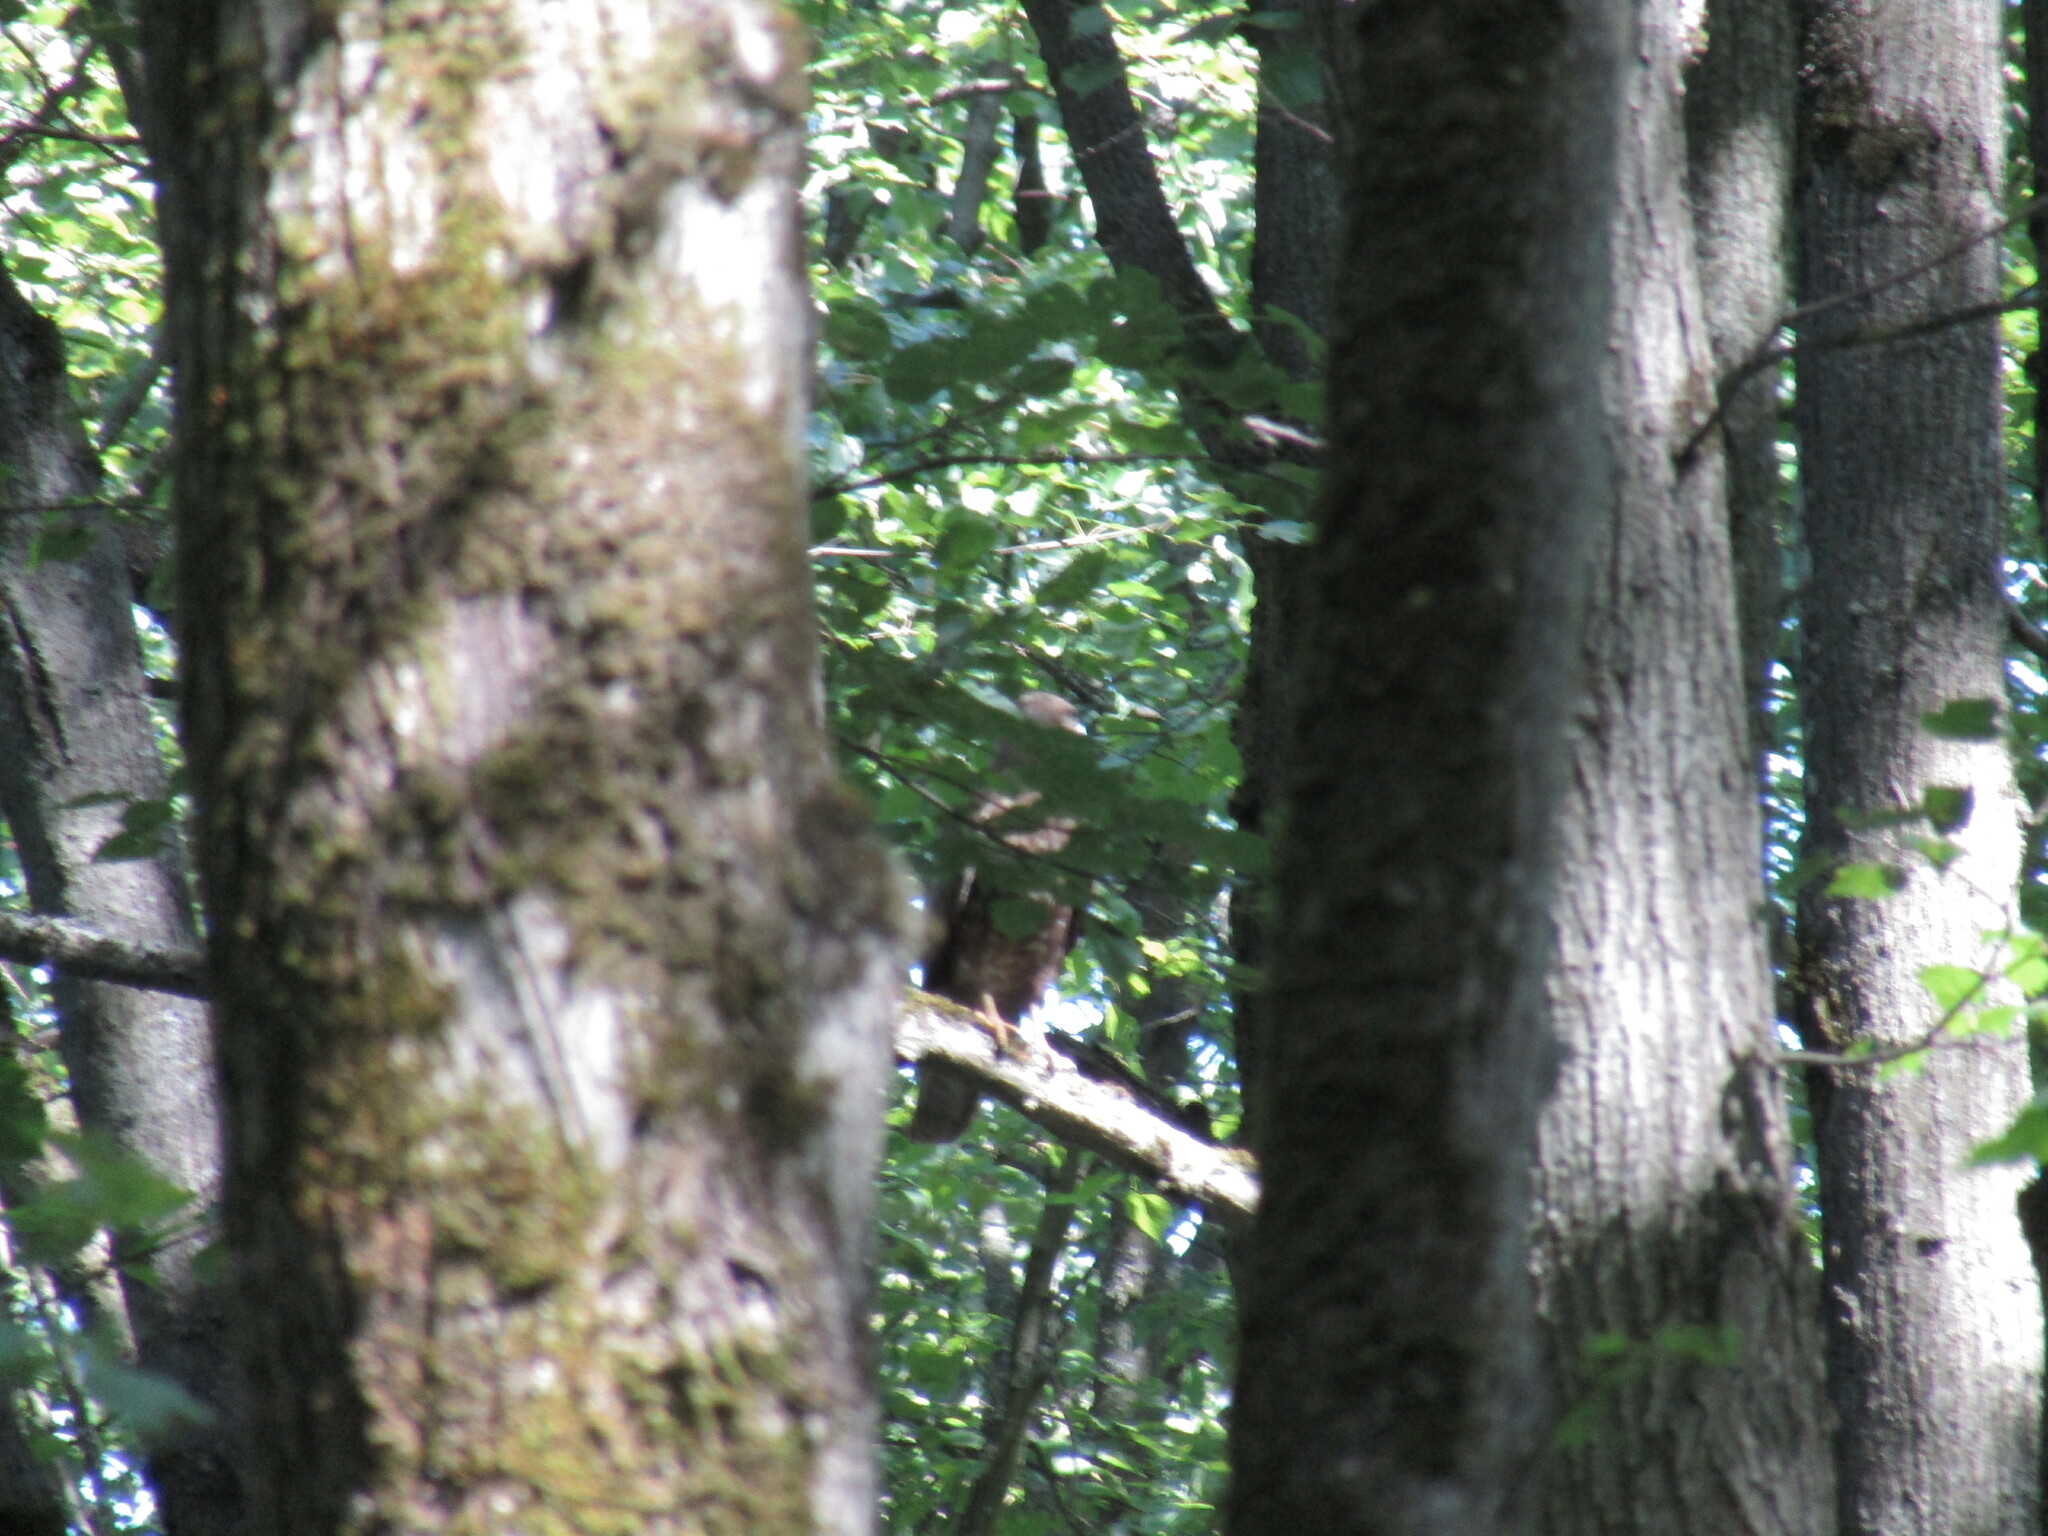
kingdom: Animalia
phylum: Chordata
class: Aves
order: Accipitriformes
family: Accipitridae
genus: Buteo
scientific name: Buteo buteo
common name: Common buzzard
